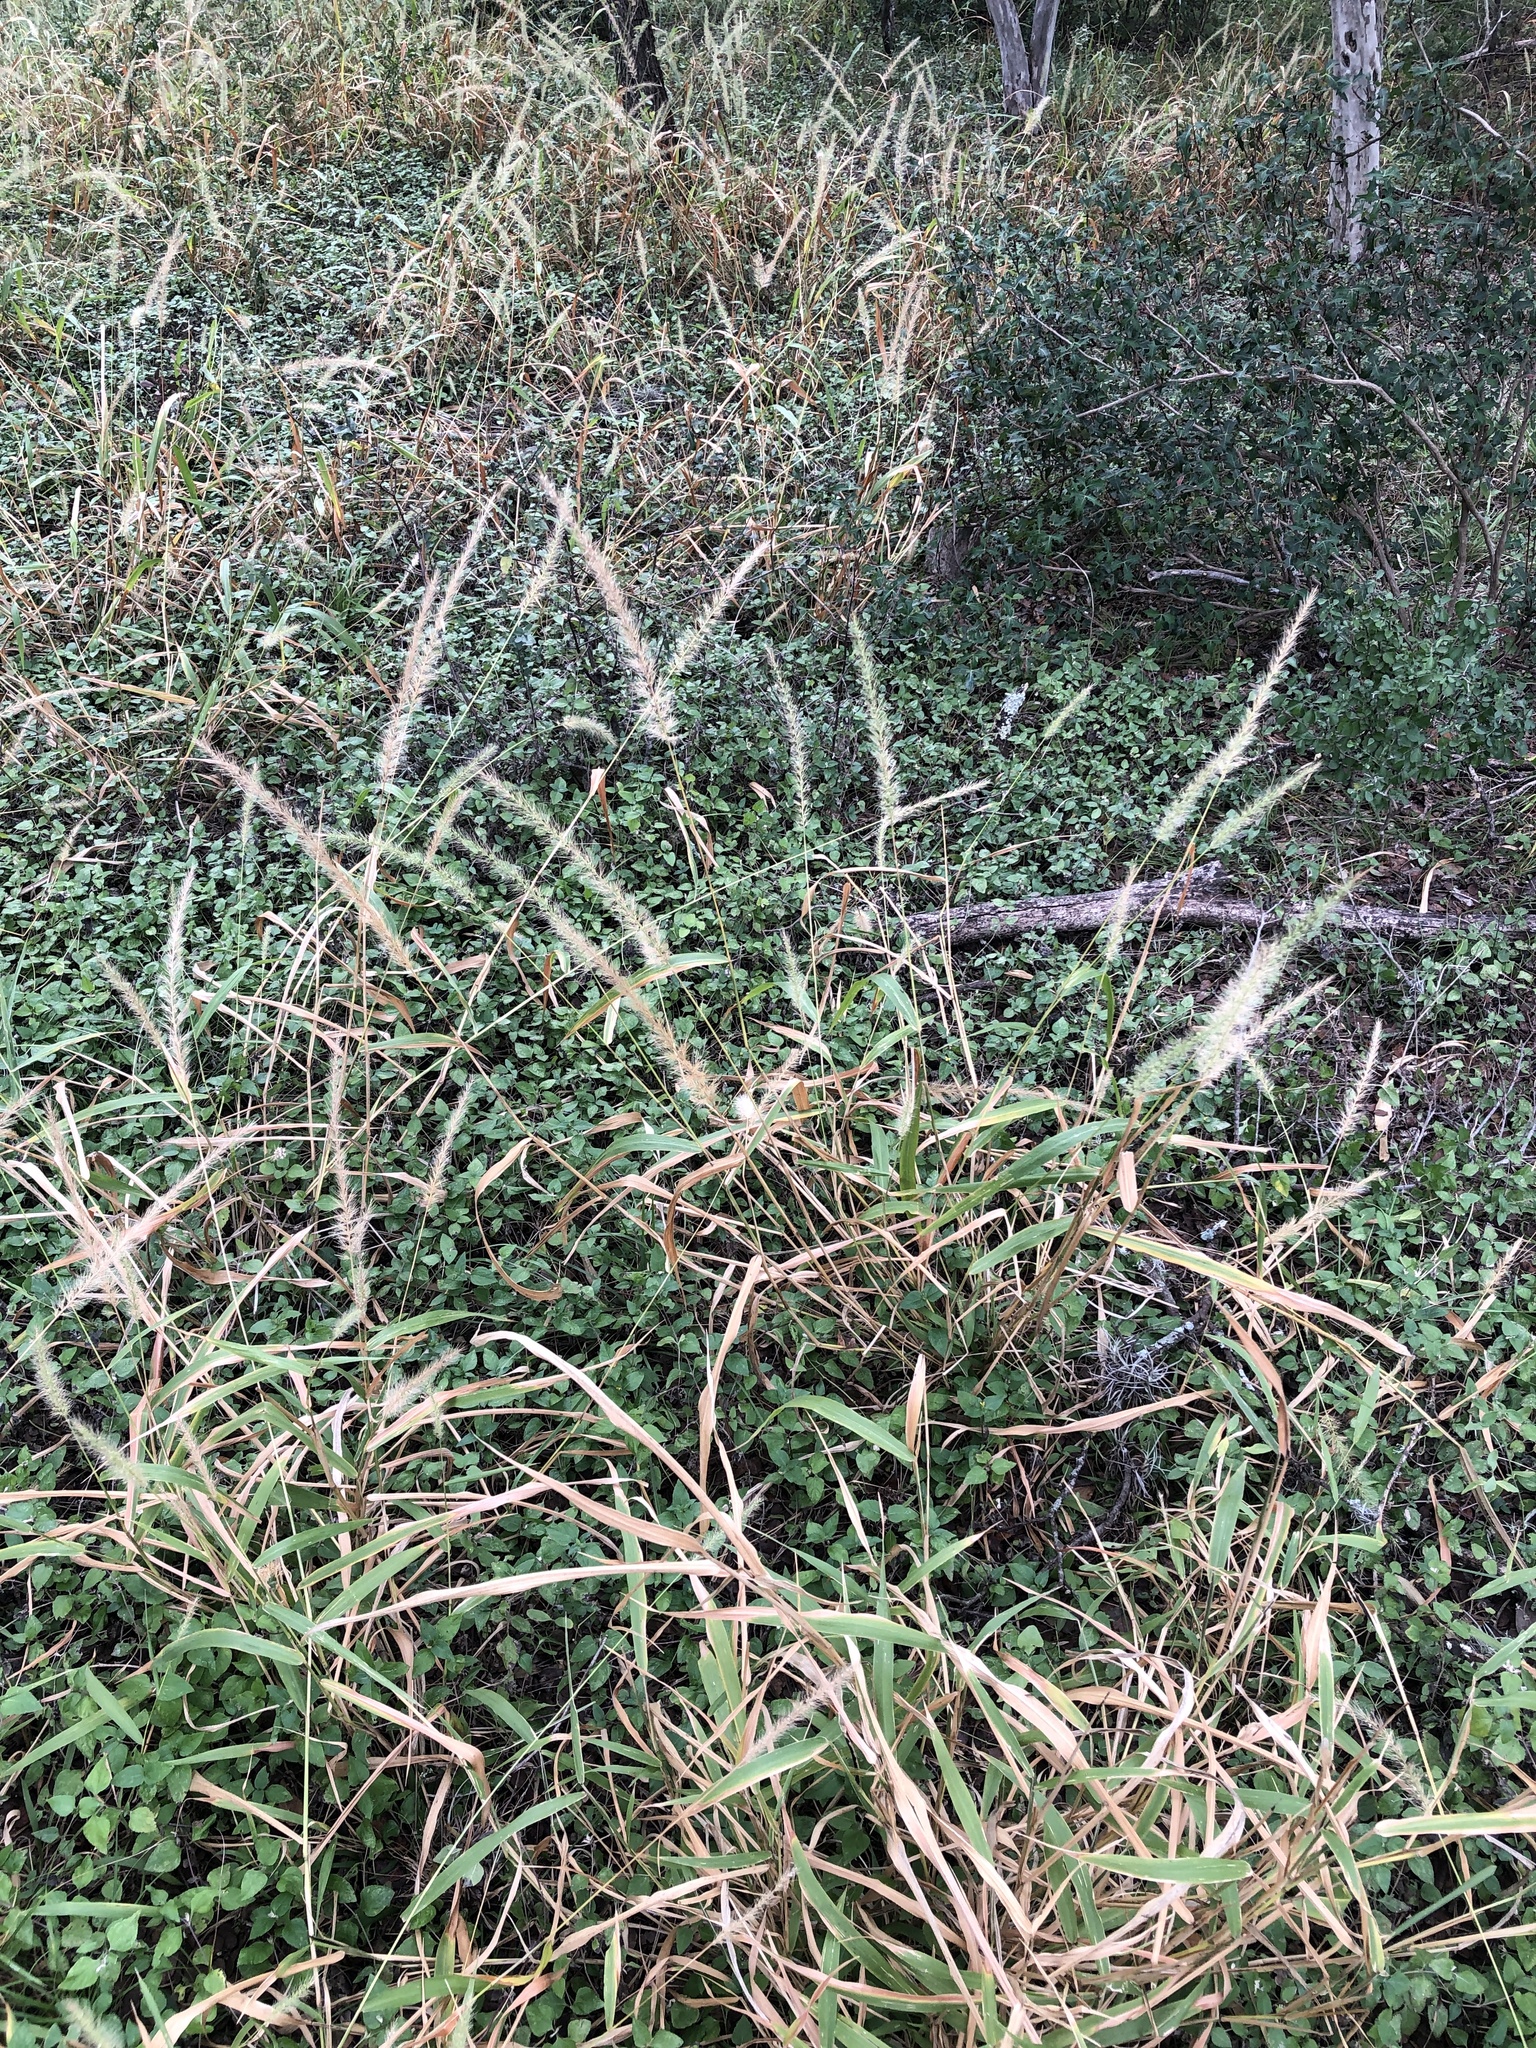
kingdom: Plantae
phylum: Tracheophyta
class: Liliopsida
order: Poales
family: Poaceae
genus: Setaria
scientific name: Setaria scheelei
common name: Southwestern bristle grass
